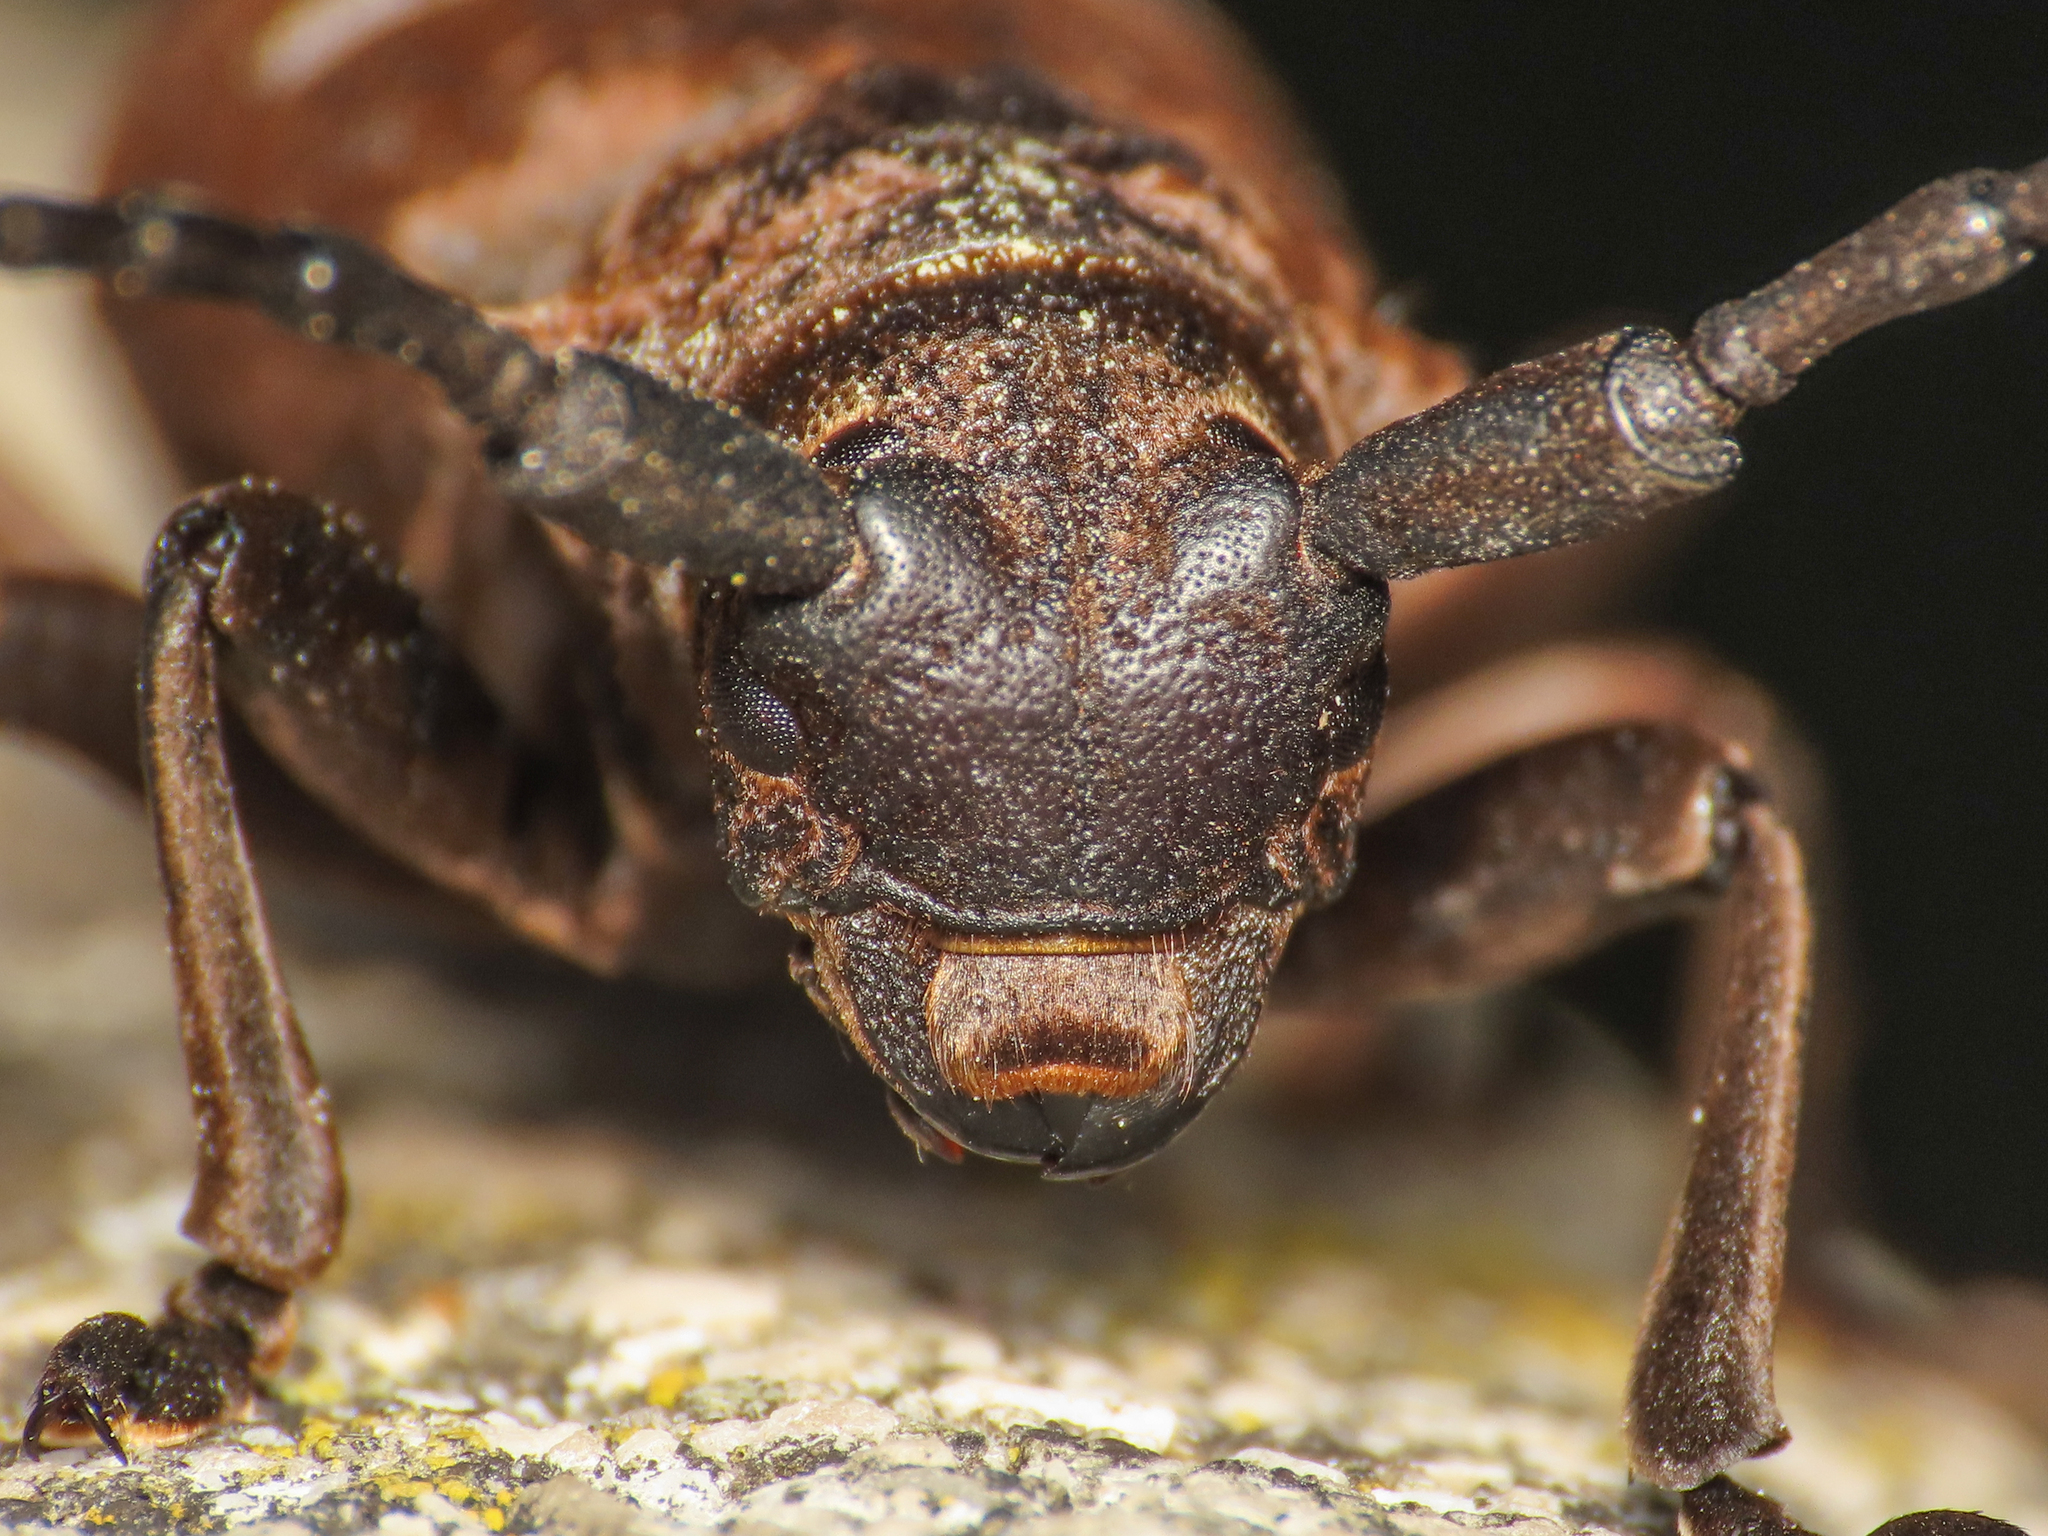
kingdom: Animalia
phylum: Arthropoda
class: Insecta
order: Coleoptera
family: Cerambycidae
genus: Herophila
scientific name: Herophila tristis
